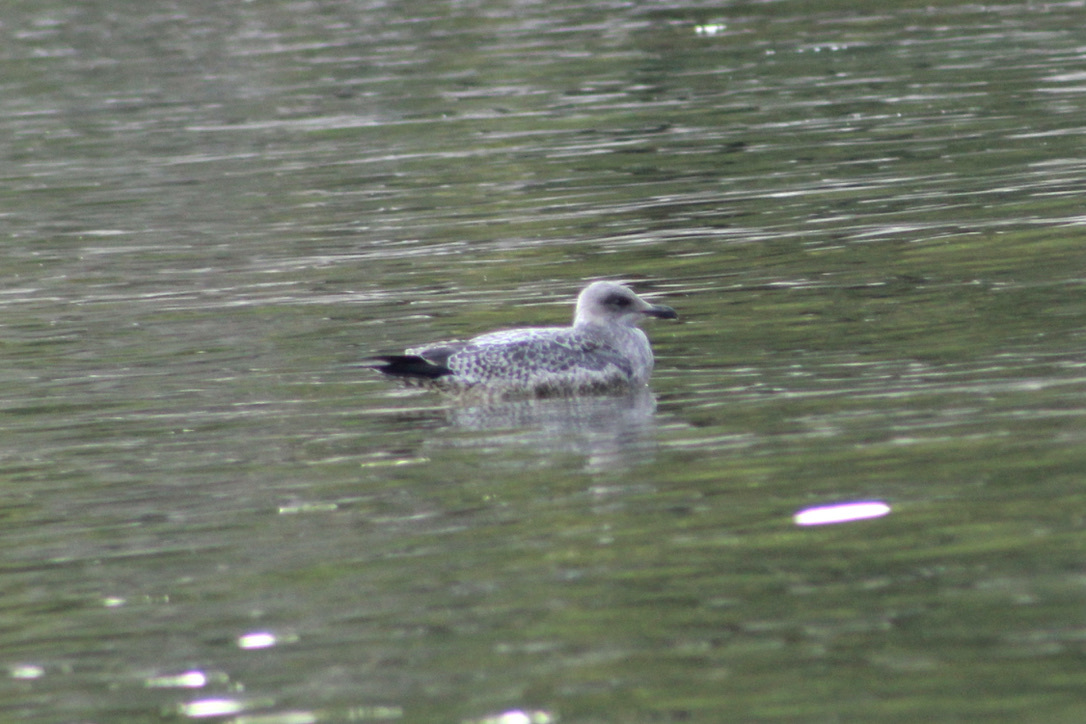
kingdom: Animalia
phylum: Chordata
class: Aves
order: Charadriiformes
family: Laridae
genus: Larus
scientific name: Larus delawarensis
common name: Ring-billed gull
